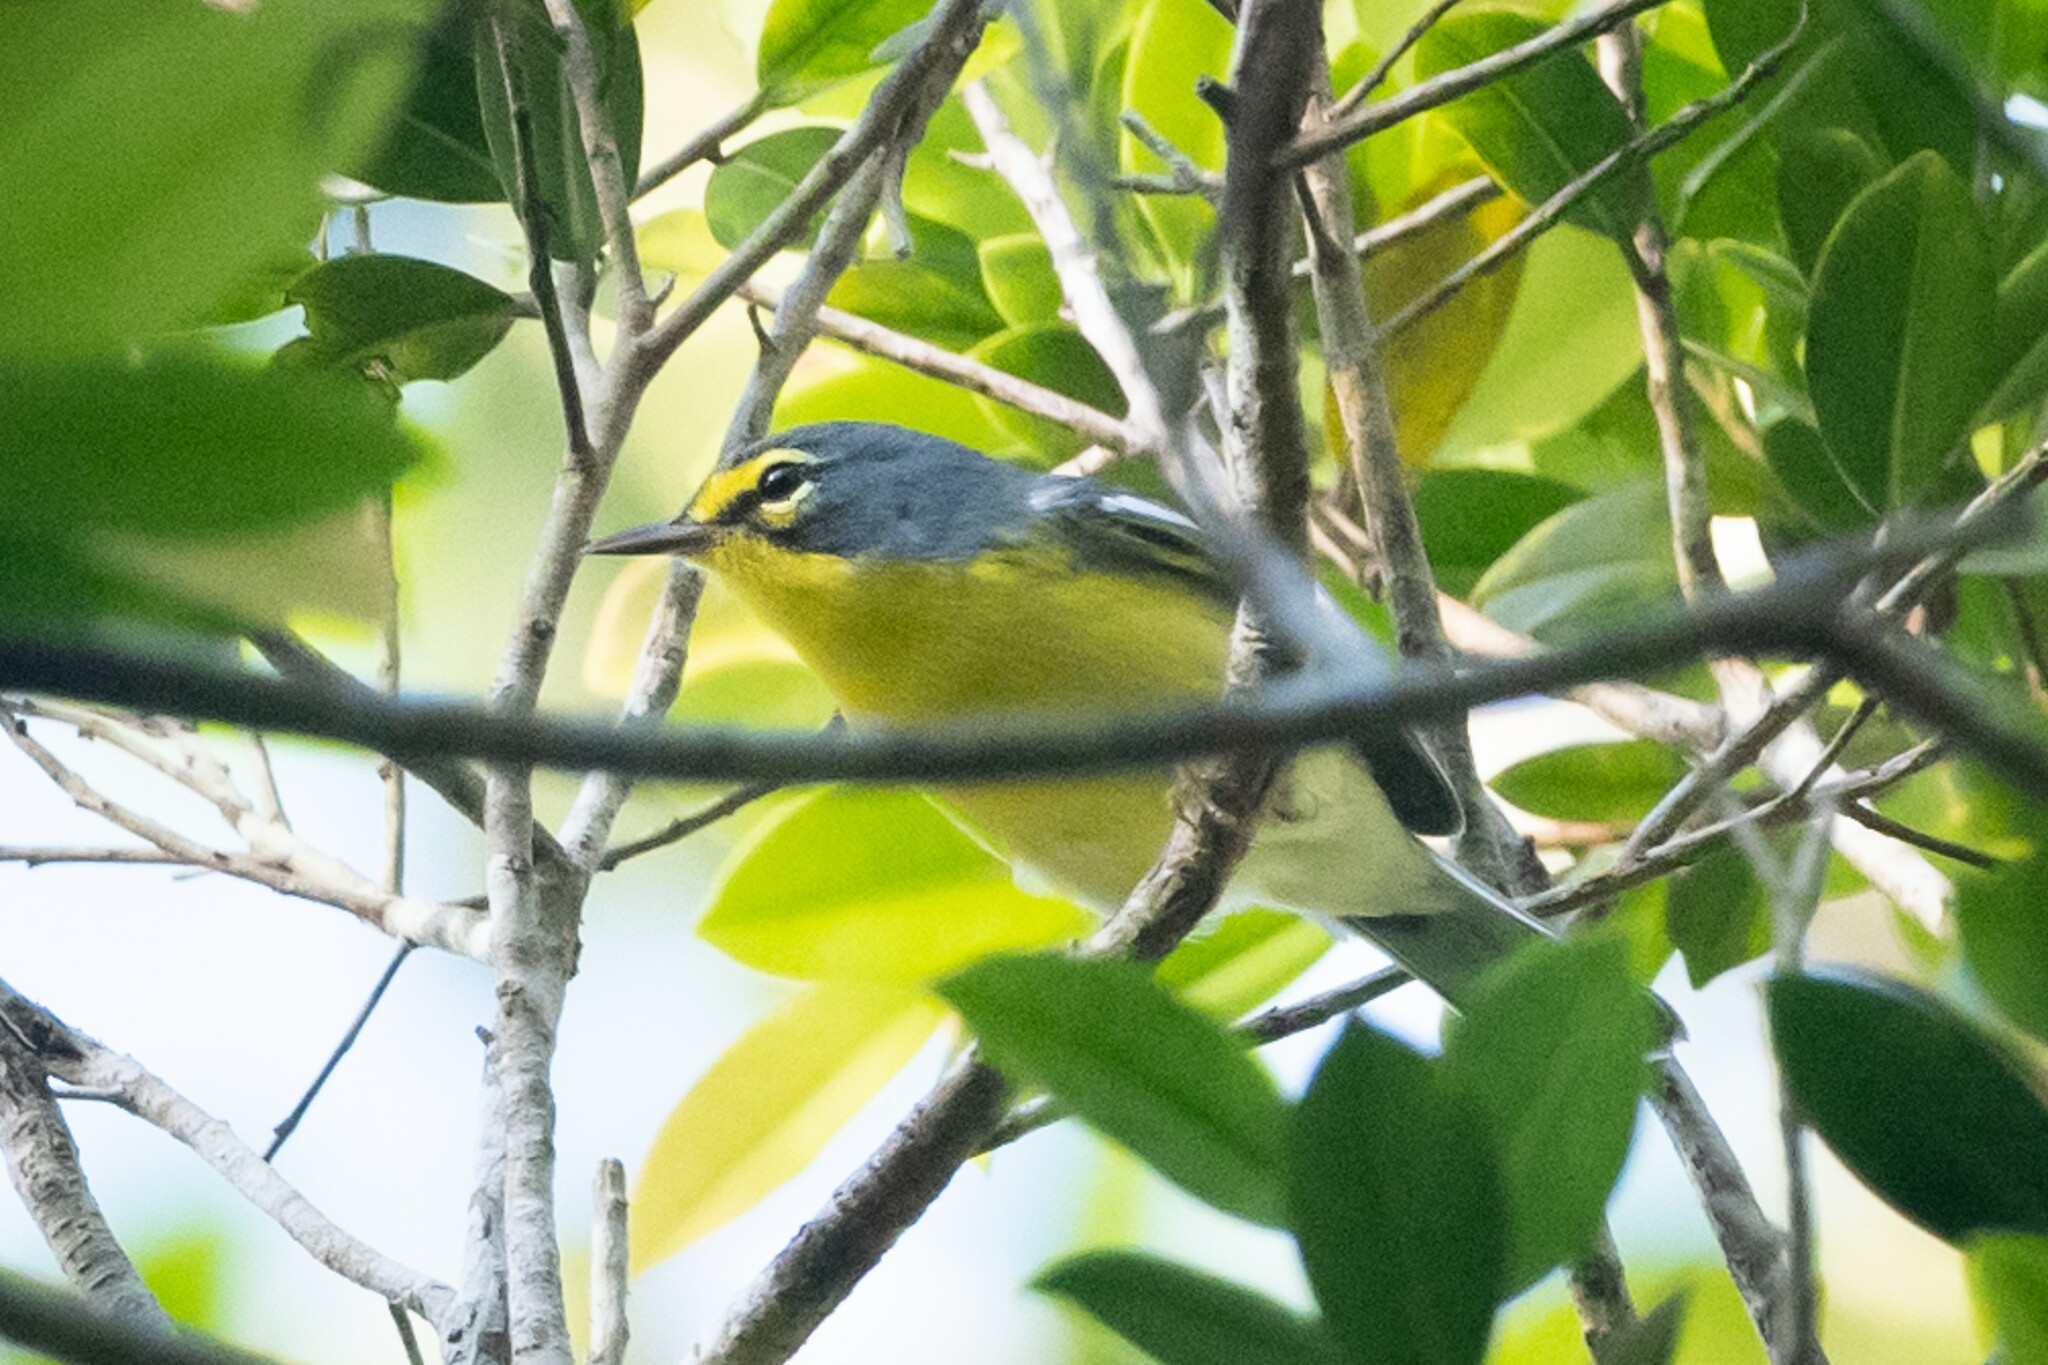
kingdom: Animalia
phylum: Chordata
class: Aves
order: Passeriformes
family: Parulidae
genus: Setophaga
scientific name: Setophaga adelaidae
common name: Adelaide's warbler
